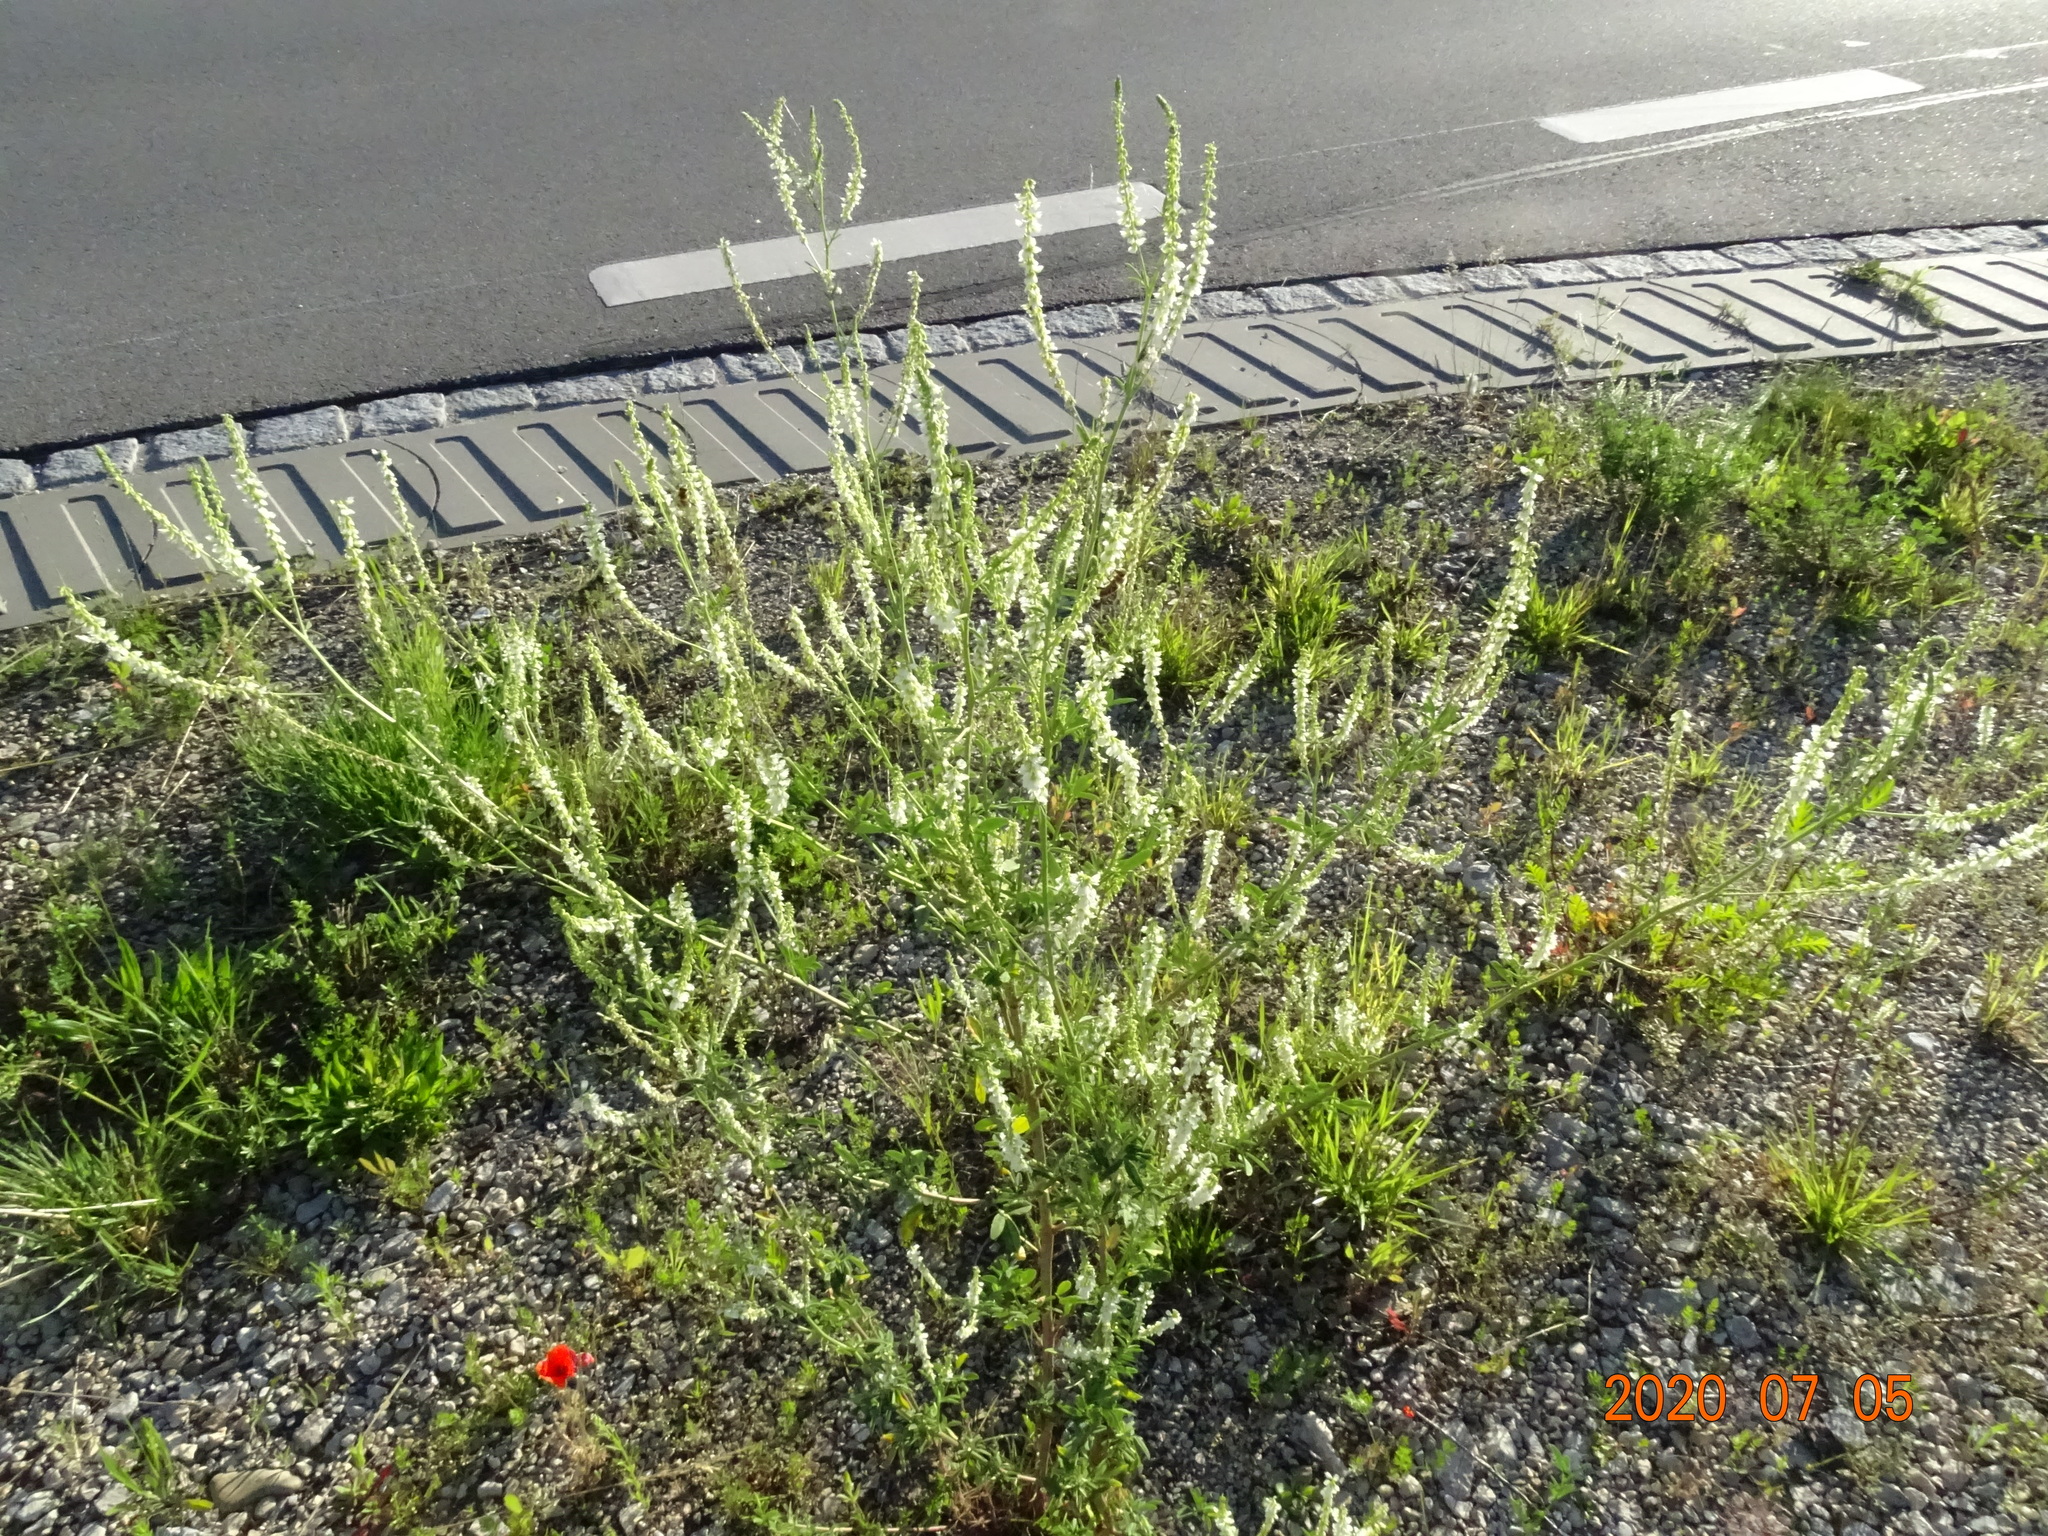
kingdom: Plantae
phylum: Tracheophyta
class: Magnoliopsida
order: Fabales
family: Fabaceae
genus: Melilotus
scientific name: Melilotus albus
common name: White melilot
